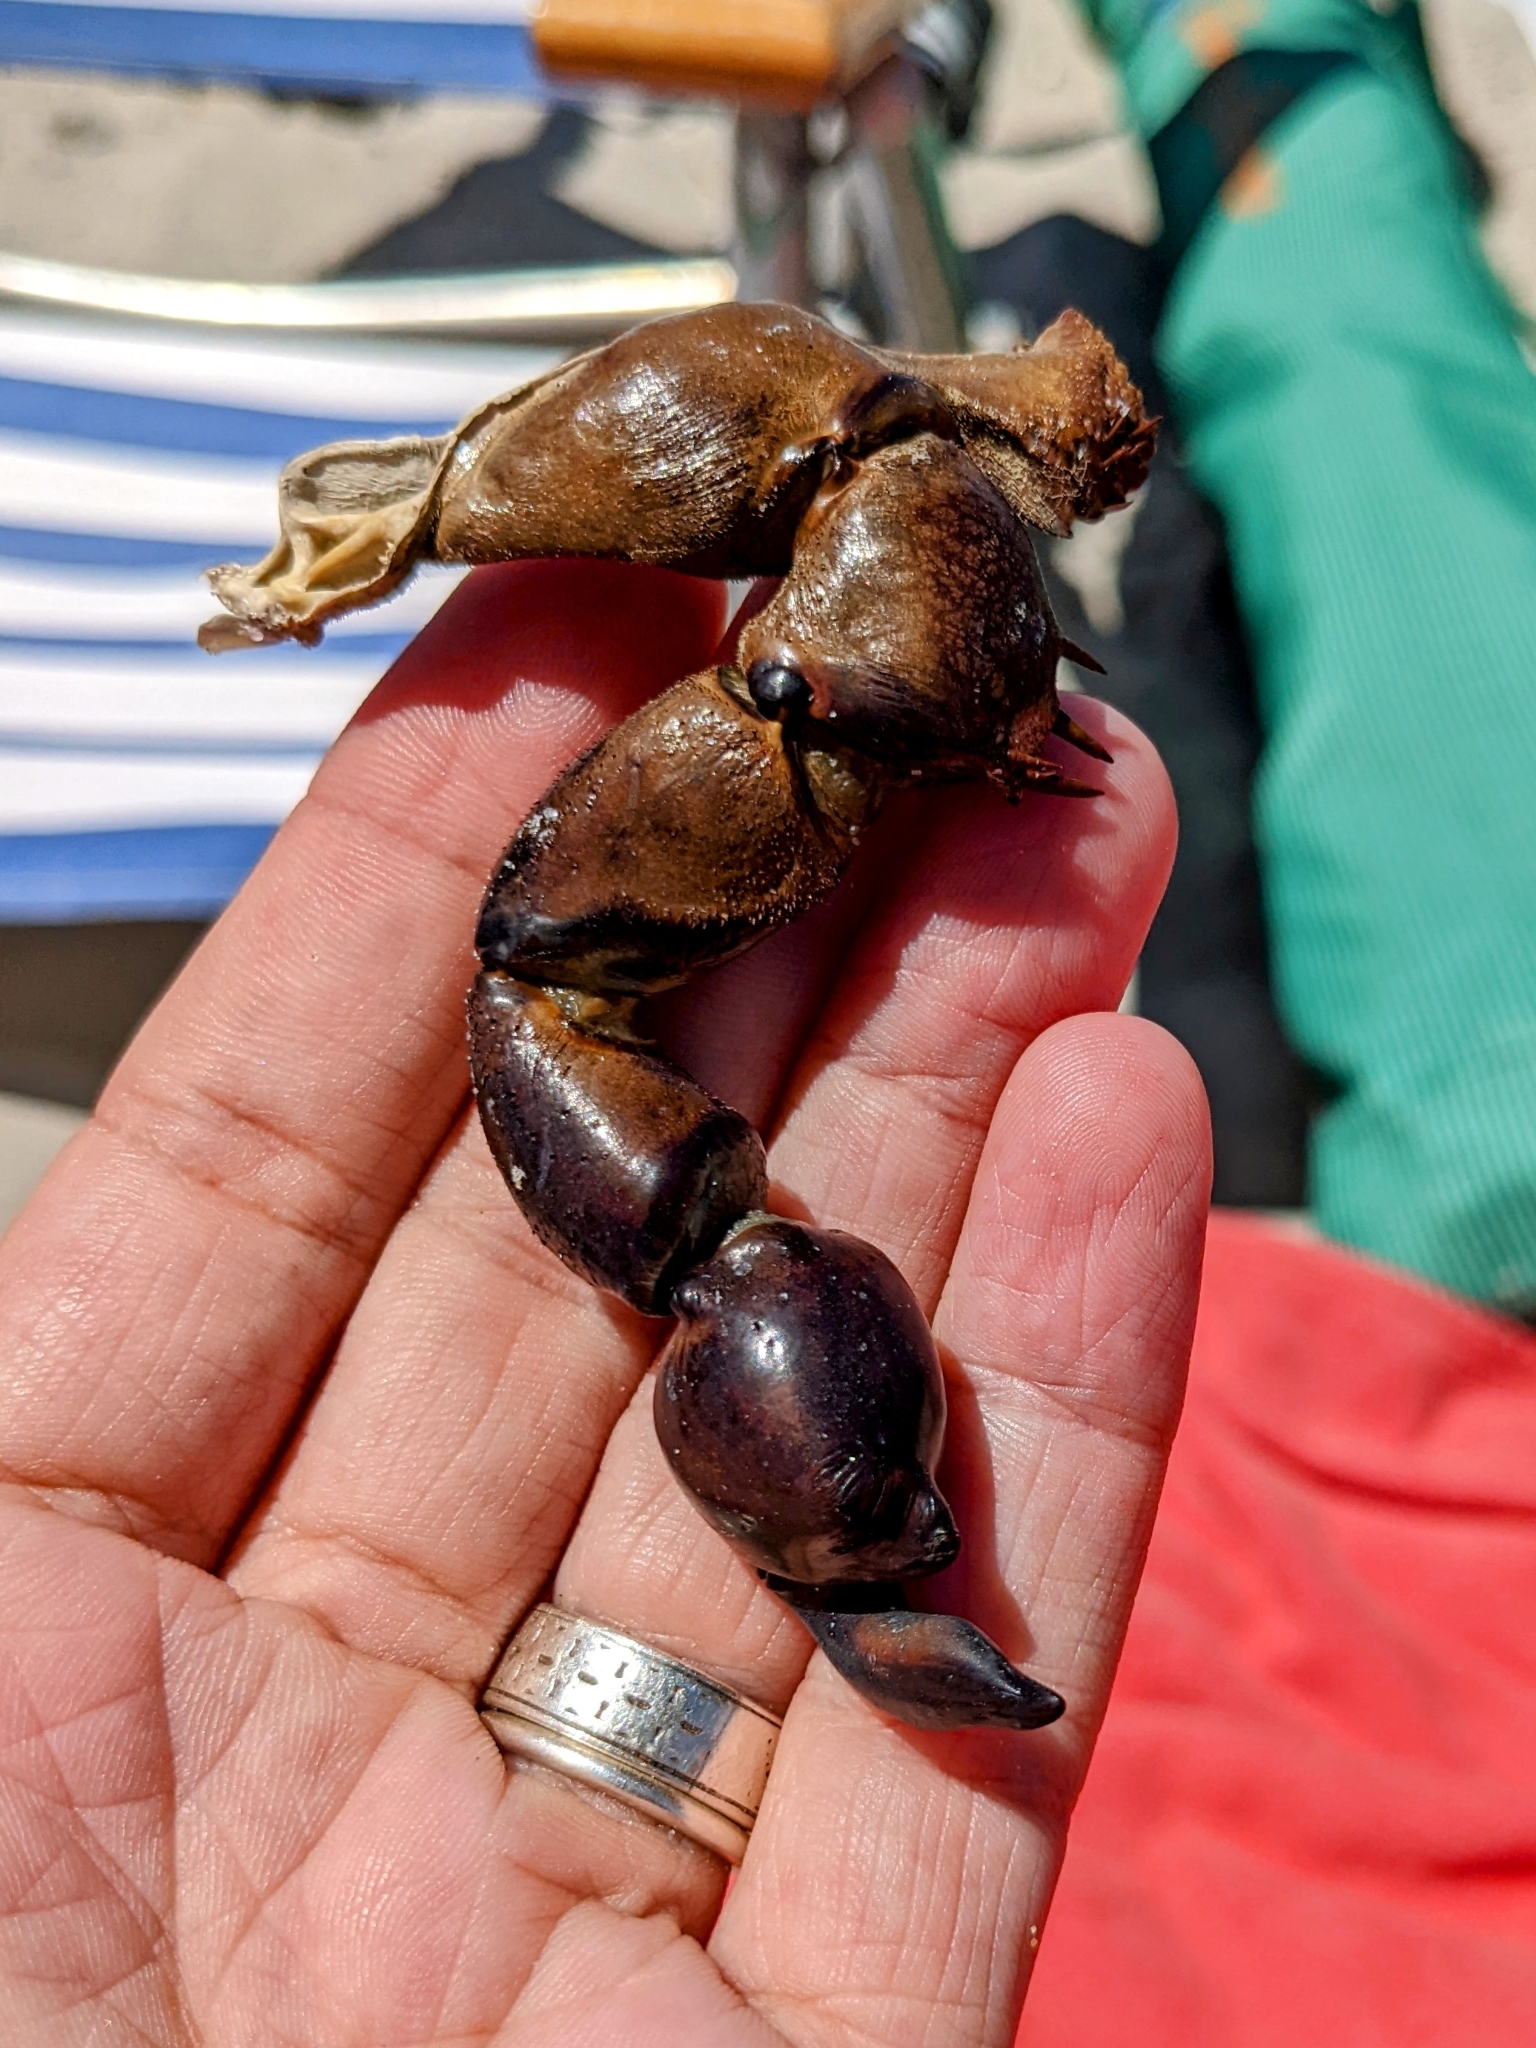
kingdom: Animalia
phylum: Arthropoda
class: Merostomata
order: Xiphosurida
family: Limulidae
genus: Limulus
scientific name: Limulus polyphemus
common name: Horseshoe crab
